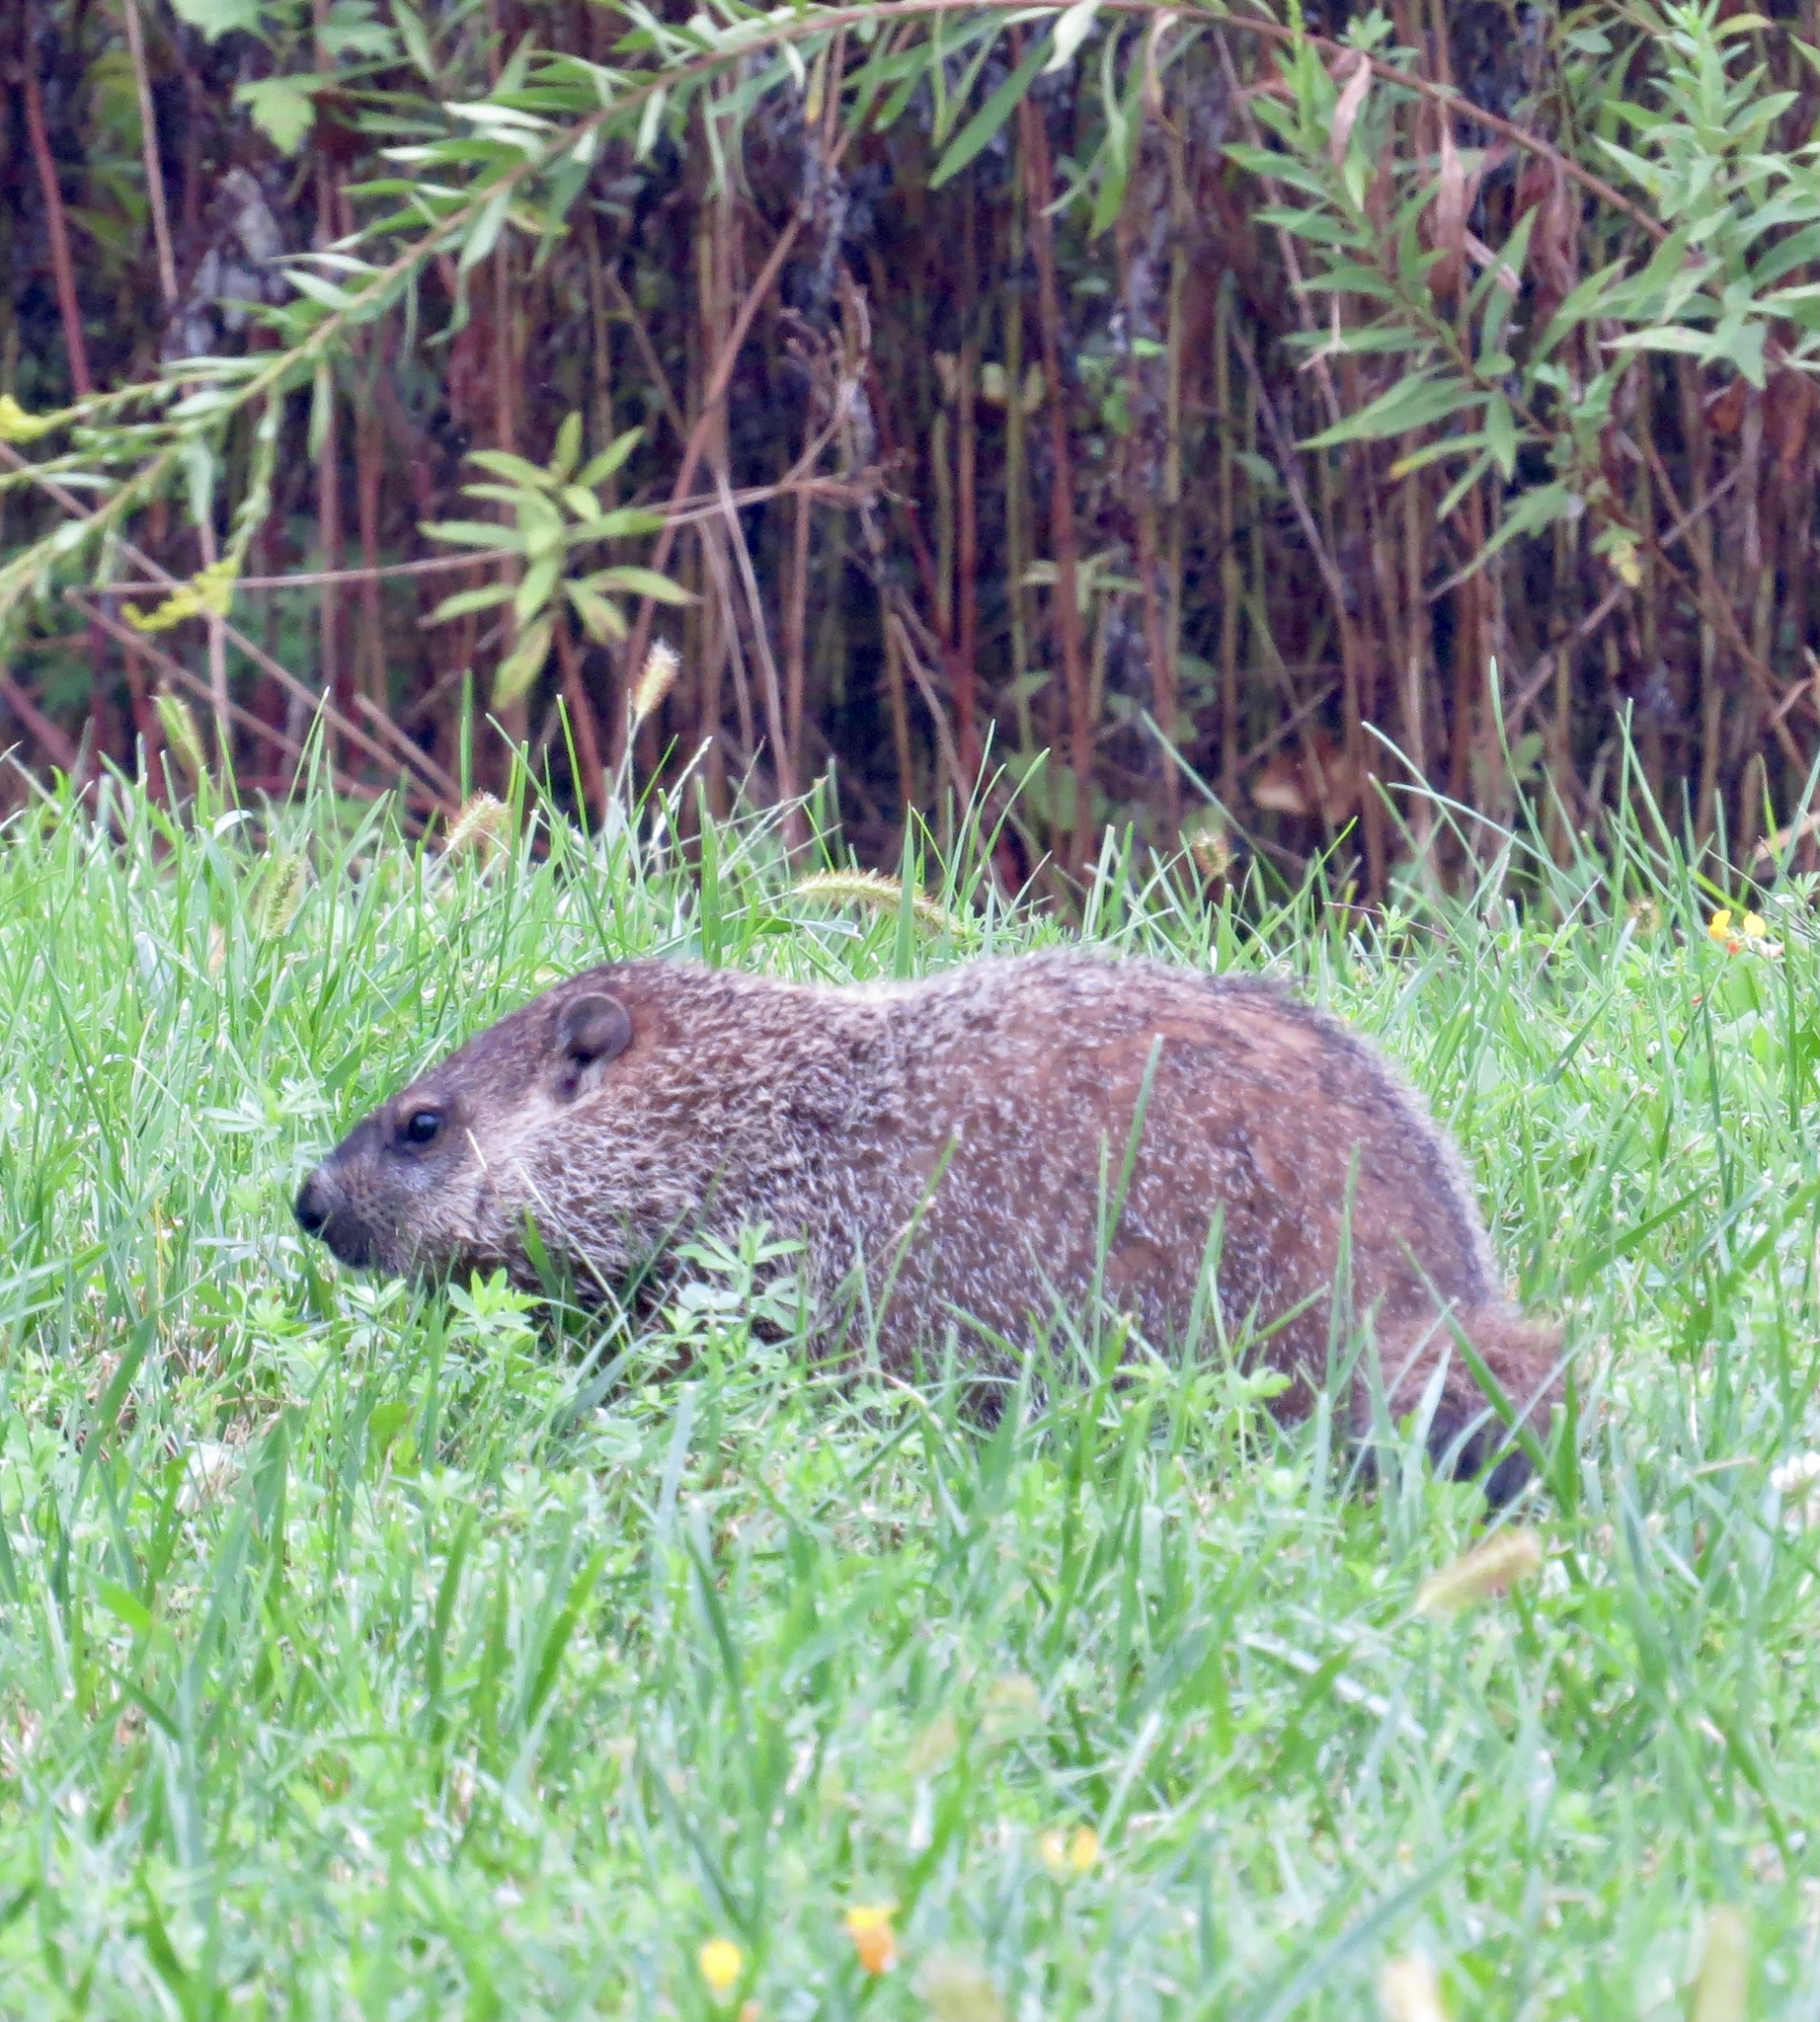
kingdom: Animalia
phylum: Chordata
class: Mammalia
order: Rodentia
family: Sciuridae
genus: Marmota
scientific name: Marmota monax
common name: Groundhog
